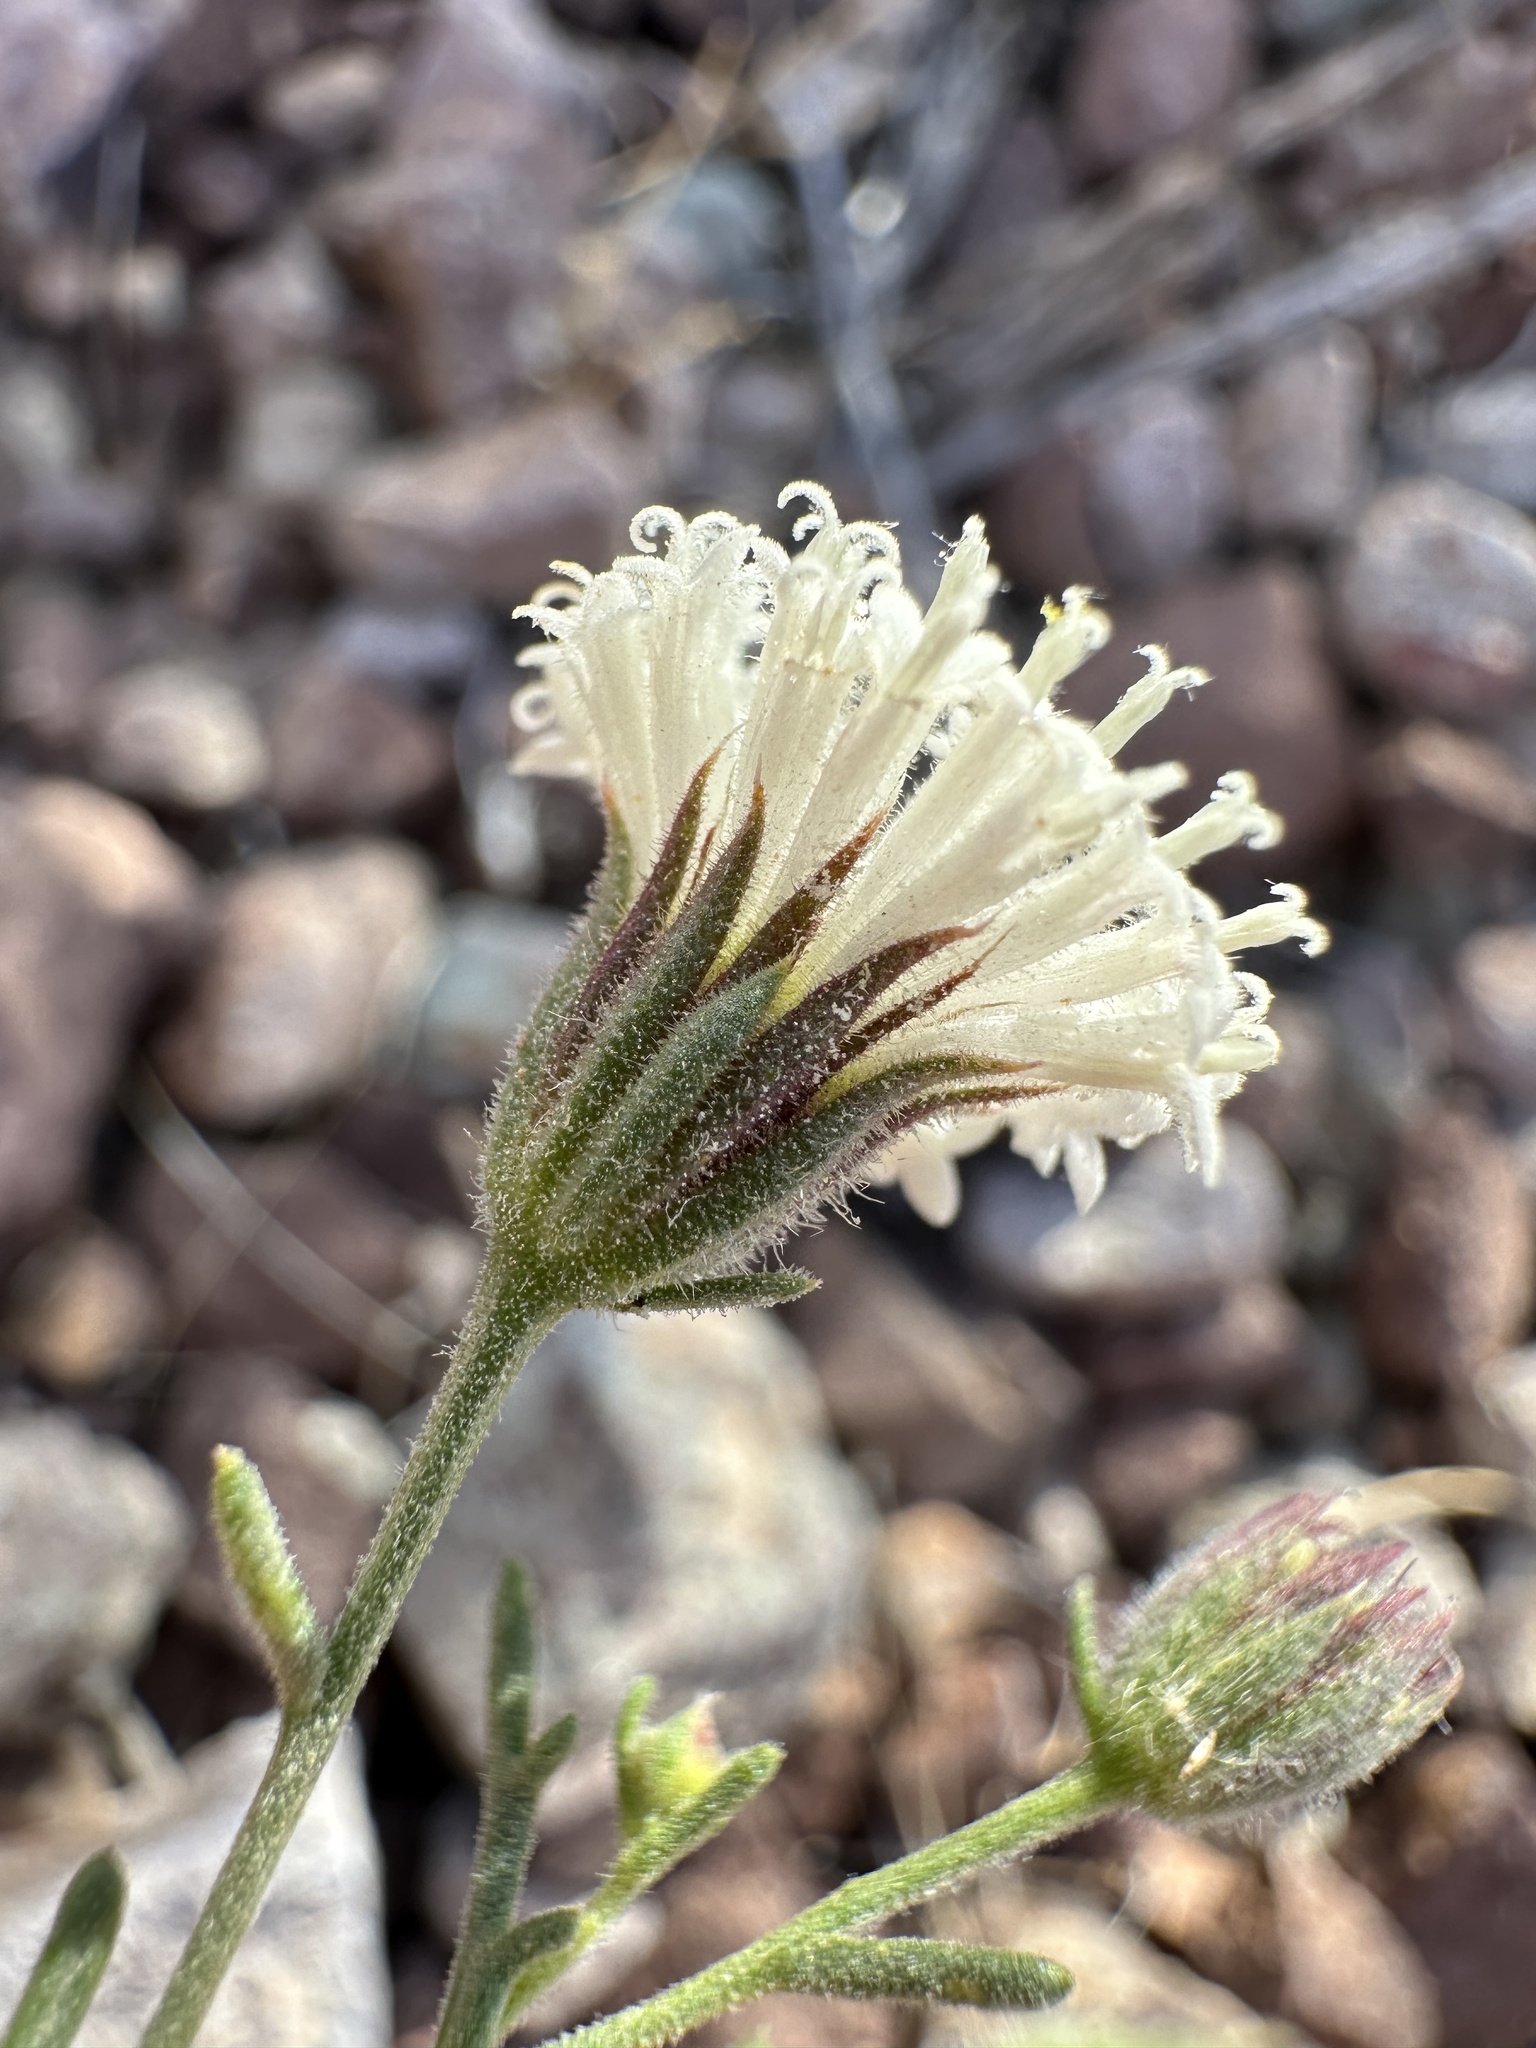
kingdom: Plantae
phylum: Tracheophyta
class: Magnoliopsida
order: Asterales
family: Asteraceae
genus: Chaenactis
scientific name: Chaenactis carphoclinia
